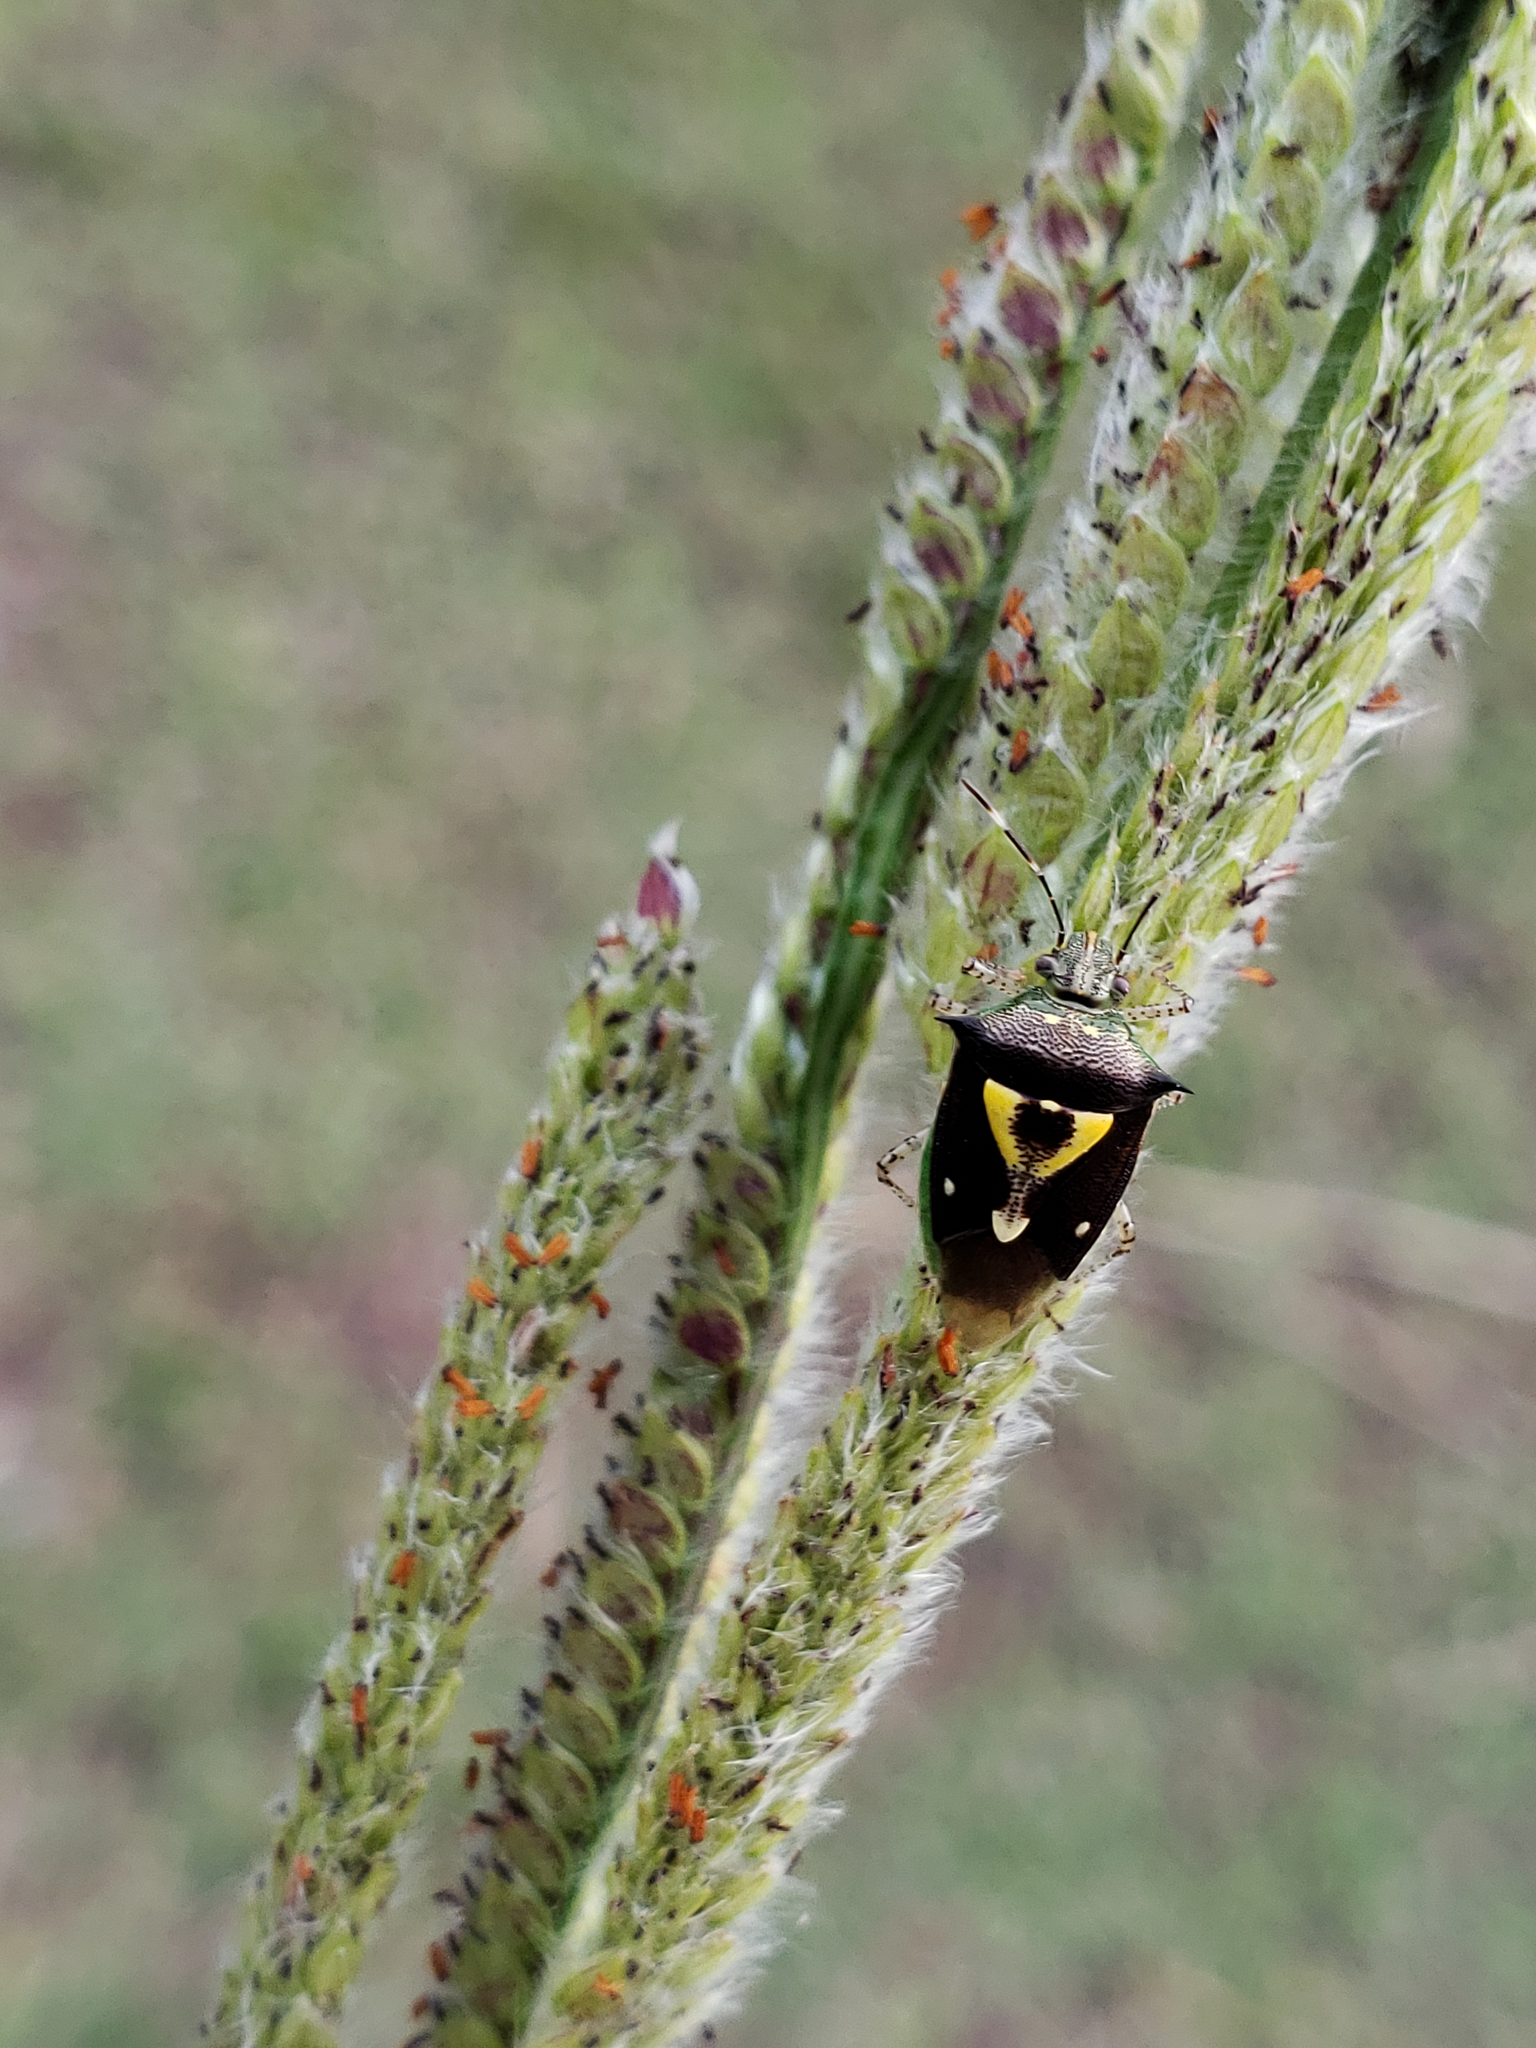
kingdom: Animalia
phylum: Arthropoda
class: Insecta
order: Hemiptera
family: Pentatomidae
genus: Mormidea
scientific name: Mormidea ypsilon
